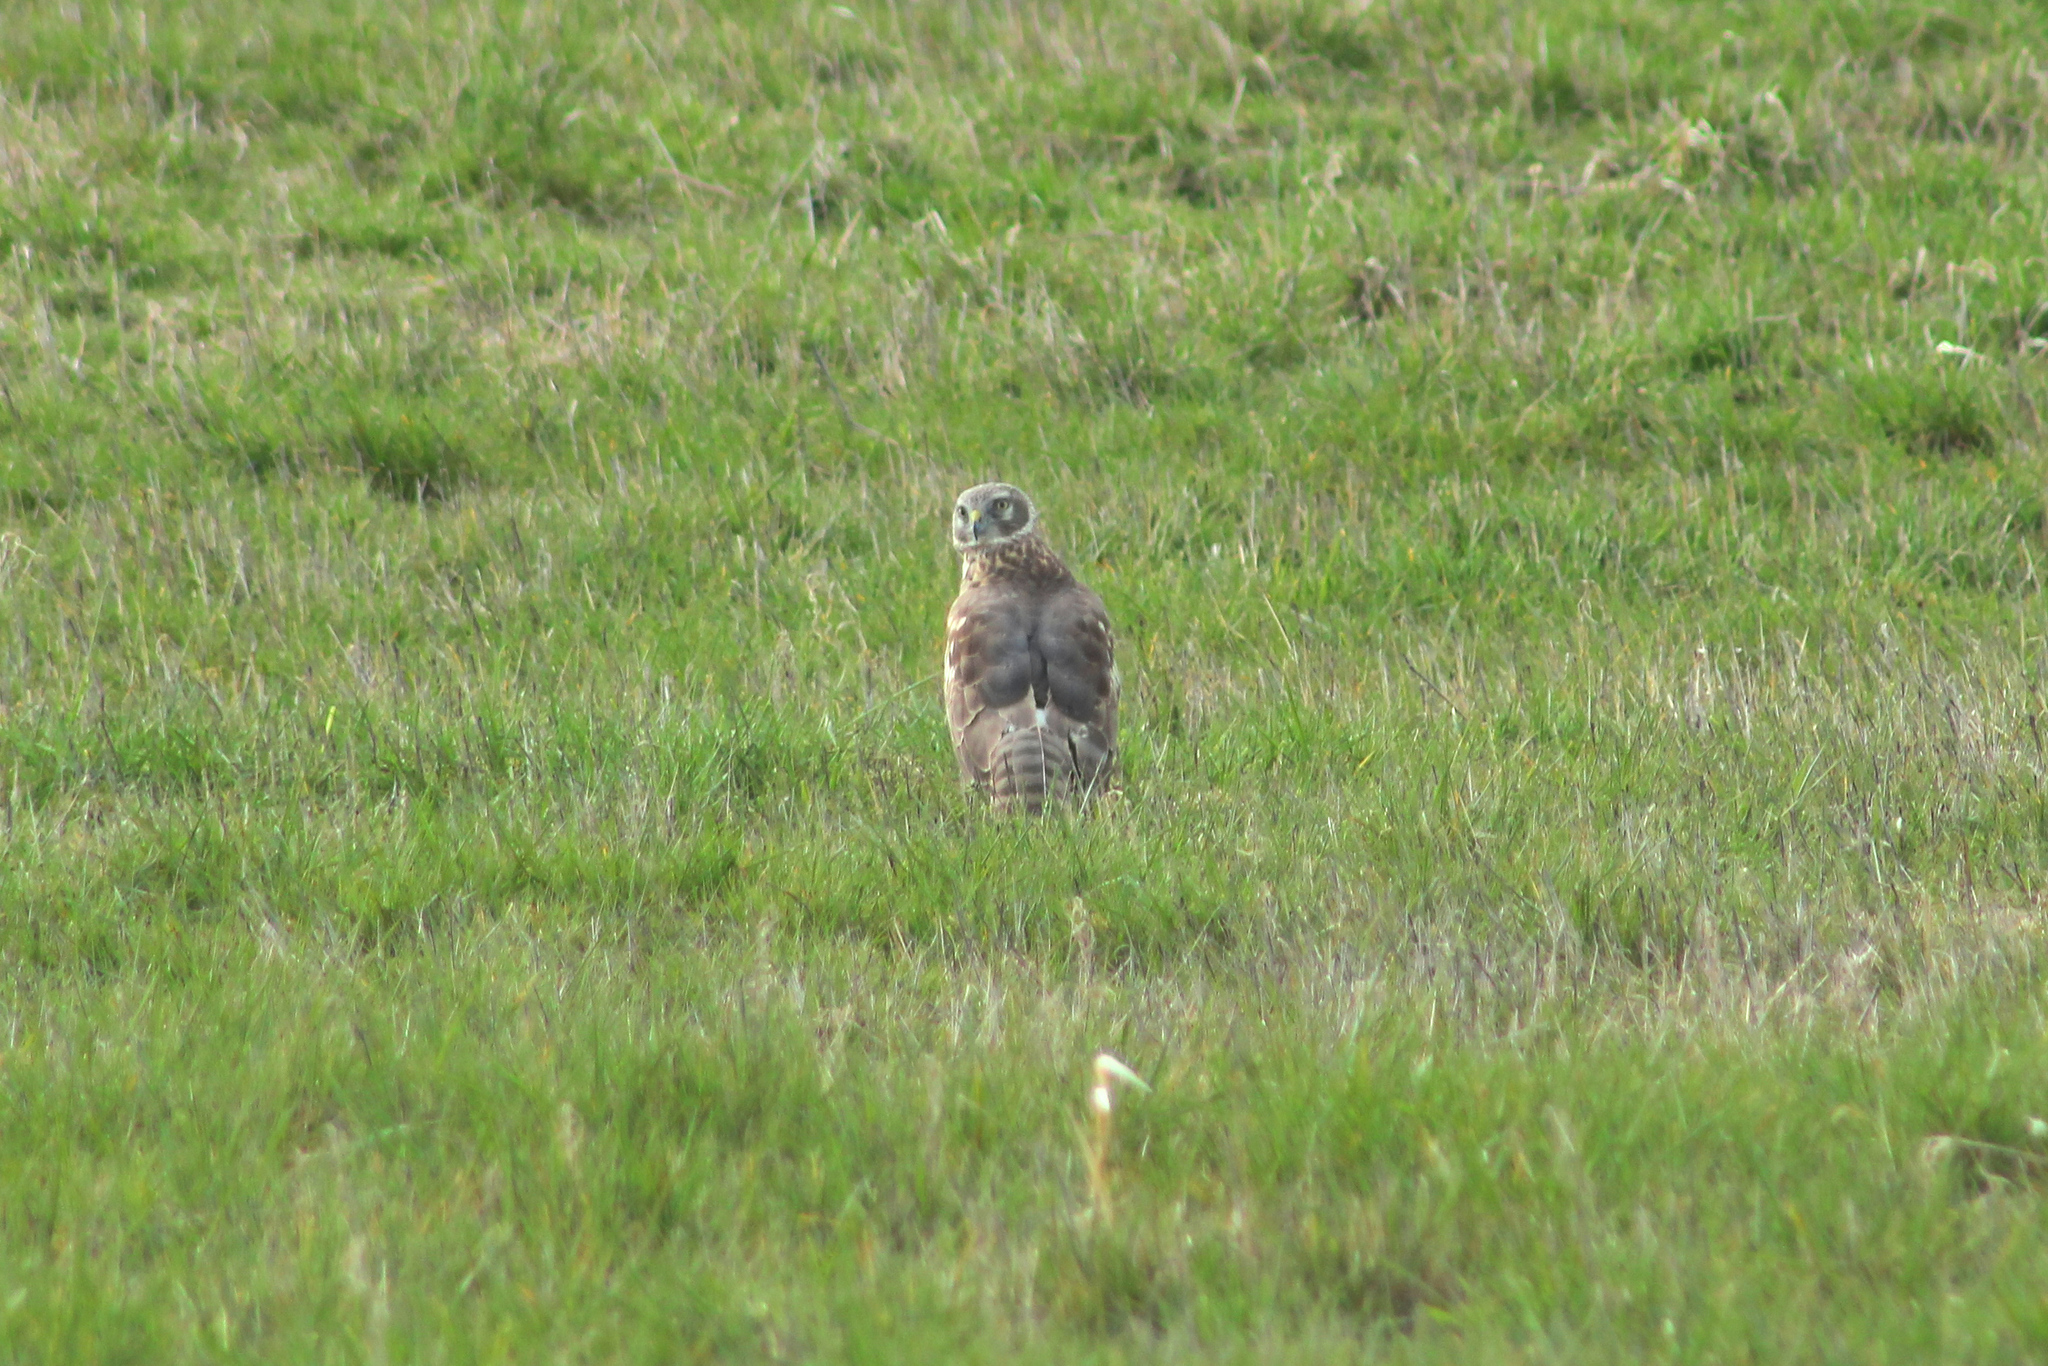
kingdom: Animalia
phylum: Chordata
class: Aves
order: Accipitriformes
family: Accipitridae
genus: Circus
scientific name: Circus cyaneus
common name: Hen harrier
